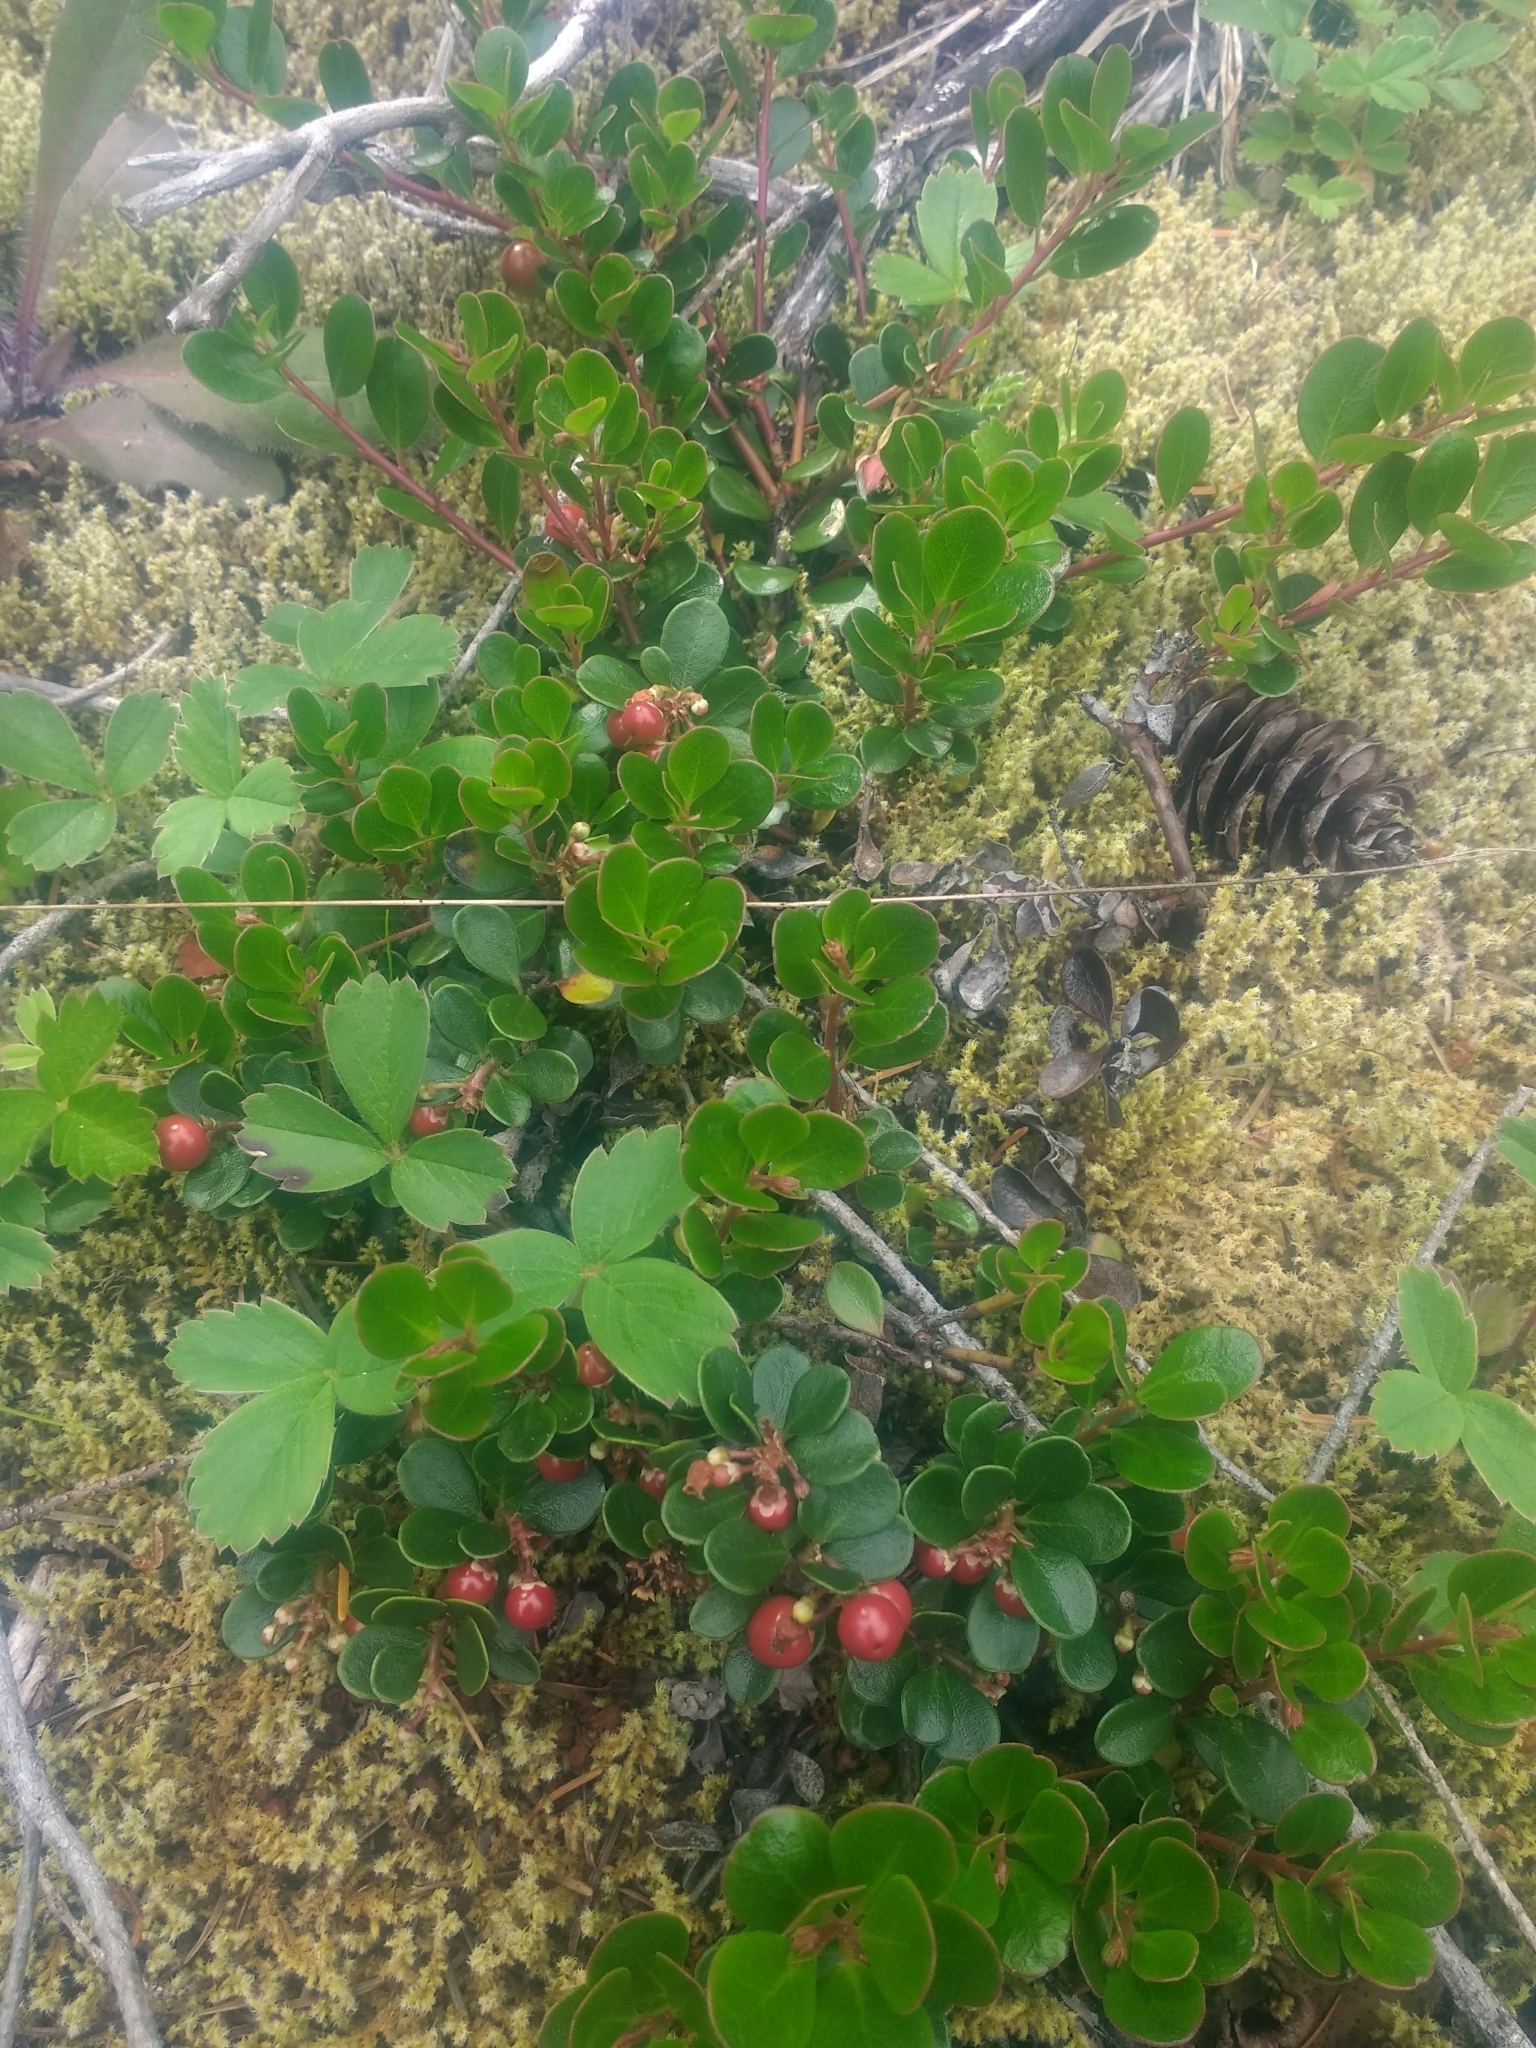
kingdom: Plantae
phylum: Tracheophyta
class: Magnoliopsida
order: Ericales
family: Ericaceae
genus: Arctostaphylos
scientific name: Arctostaphylos uva-ursi
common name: Bearberry
